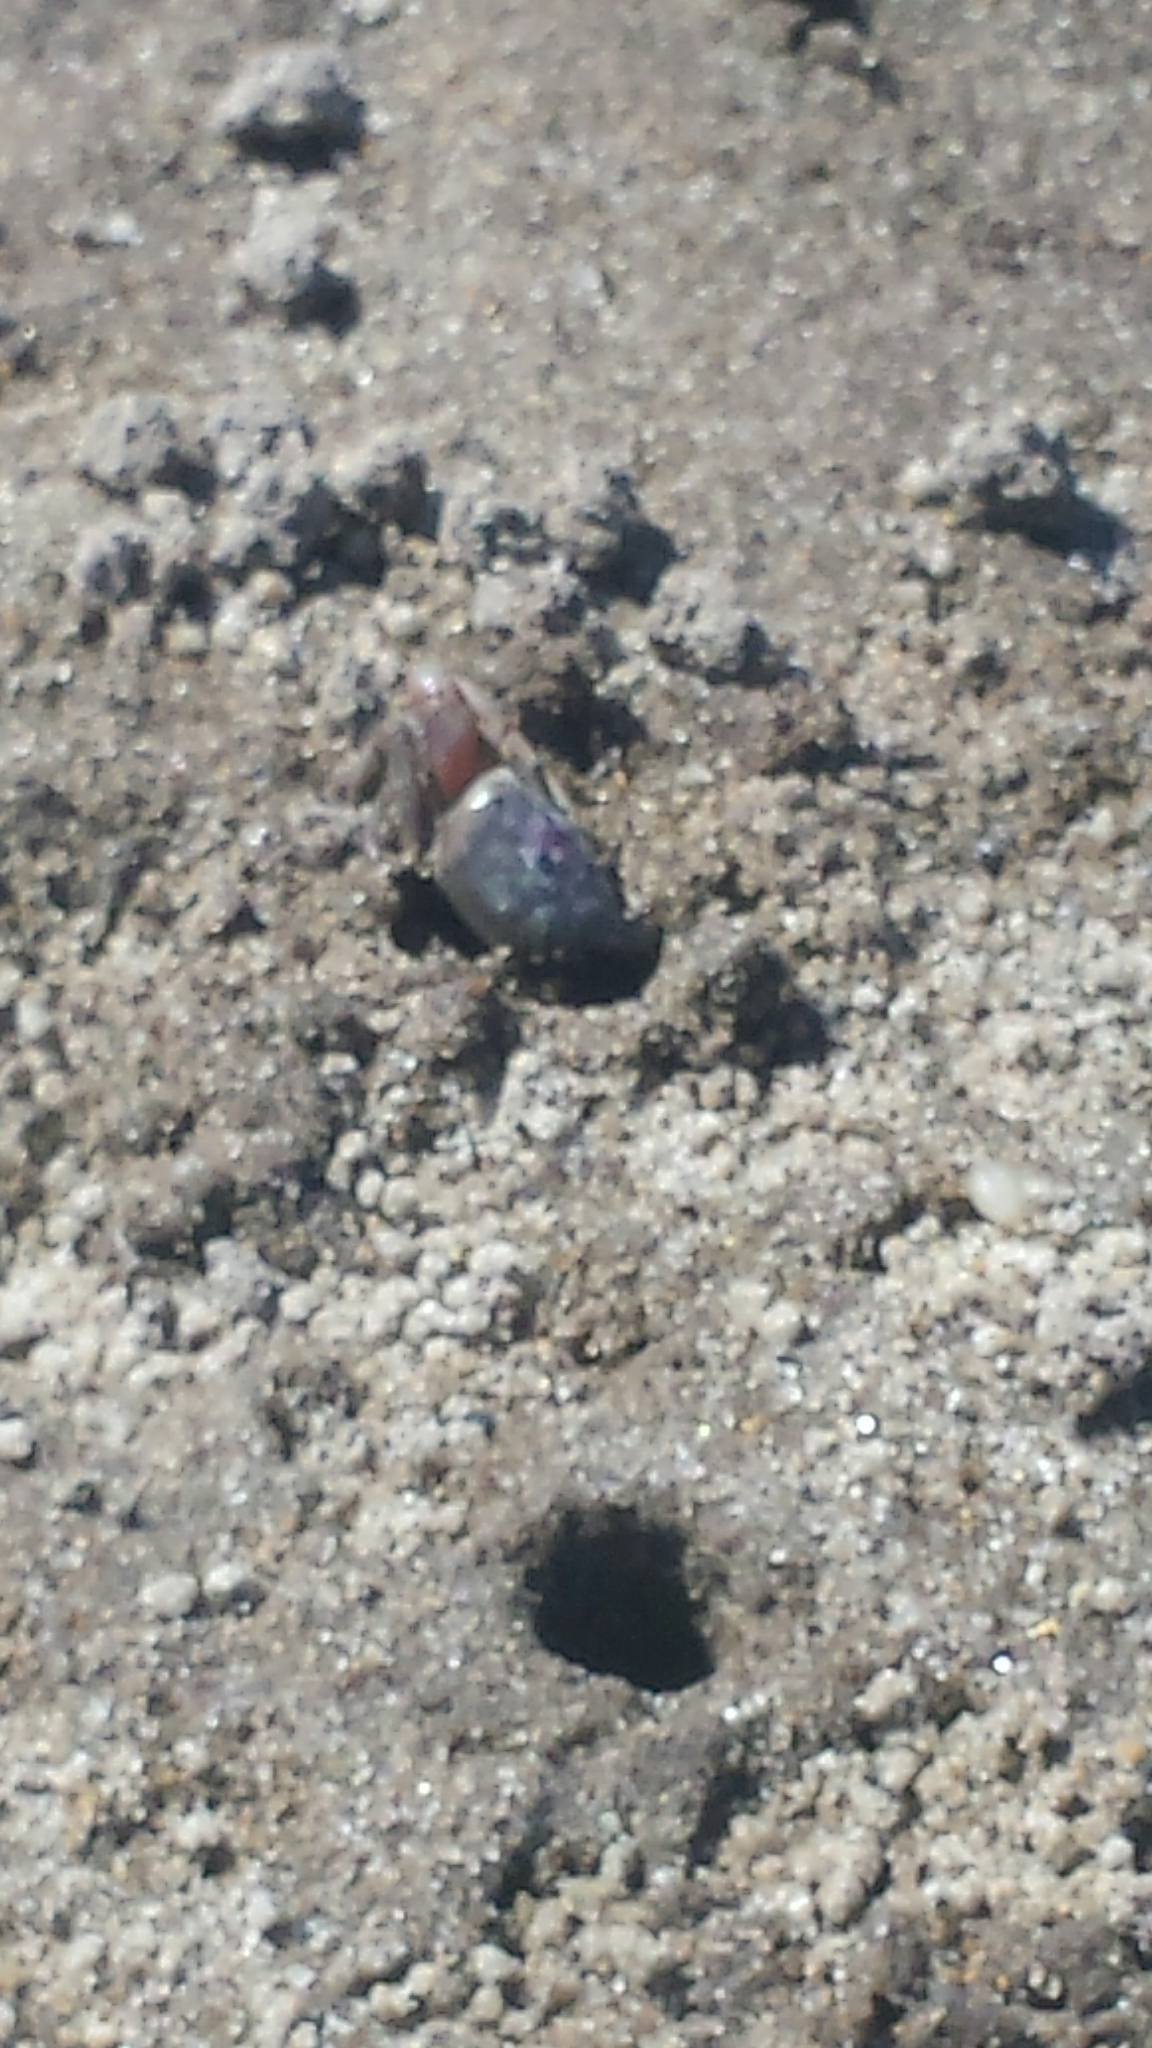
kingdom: Animalia
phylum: Arthropoda
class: Malacostraca
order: Decapoda
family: Ocypodidae
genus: Leptuca
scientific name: Leptuca pugilator
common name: Atlantic sand fiddler crab
